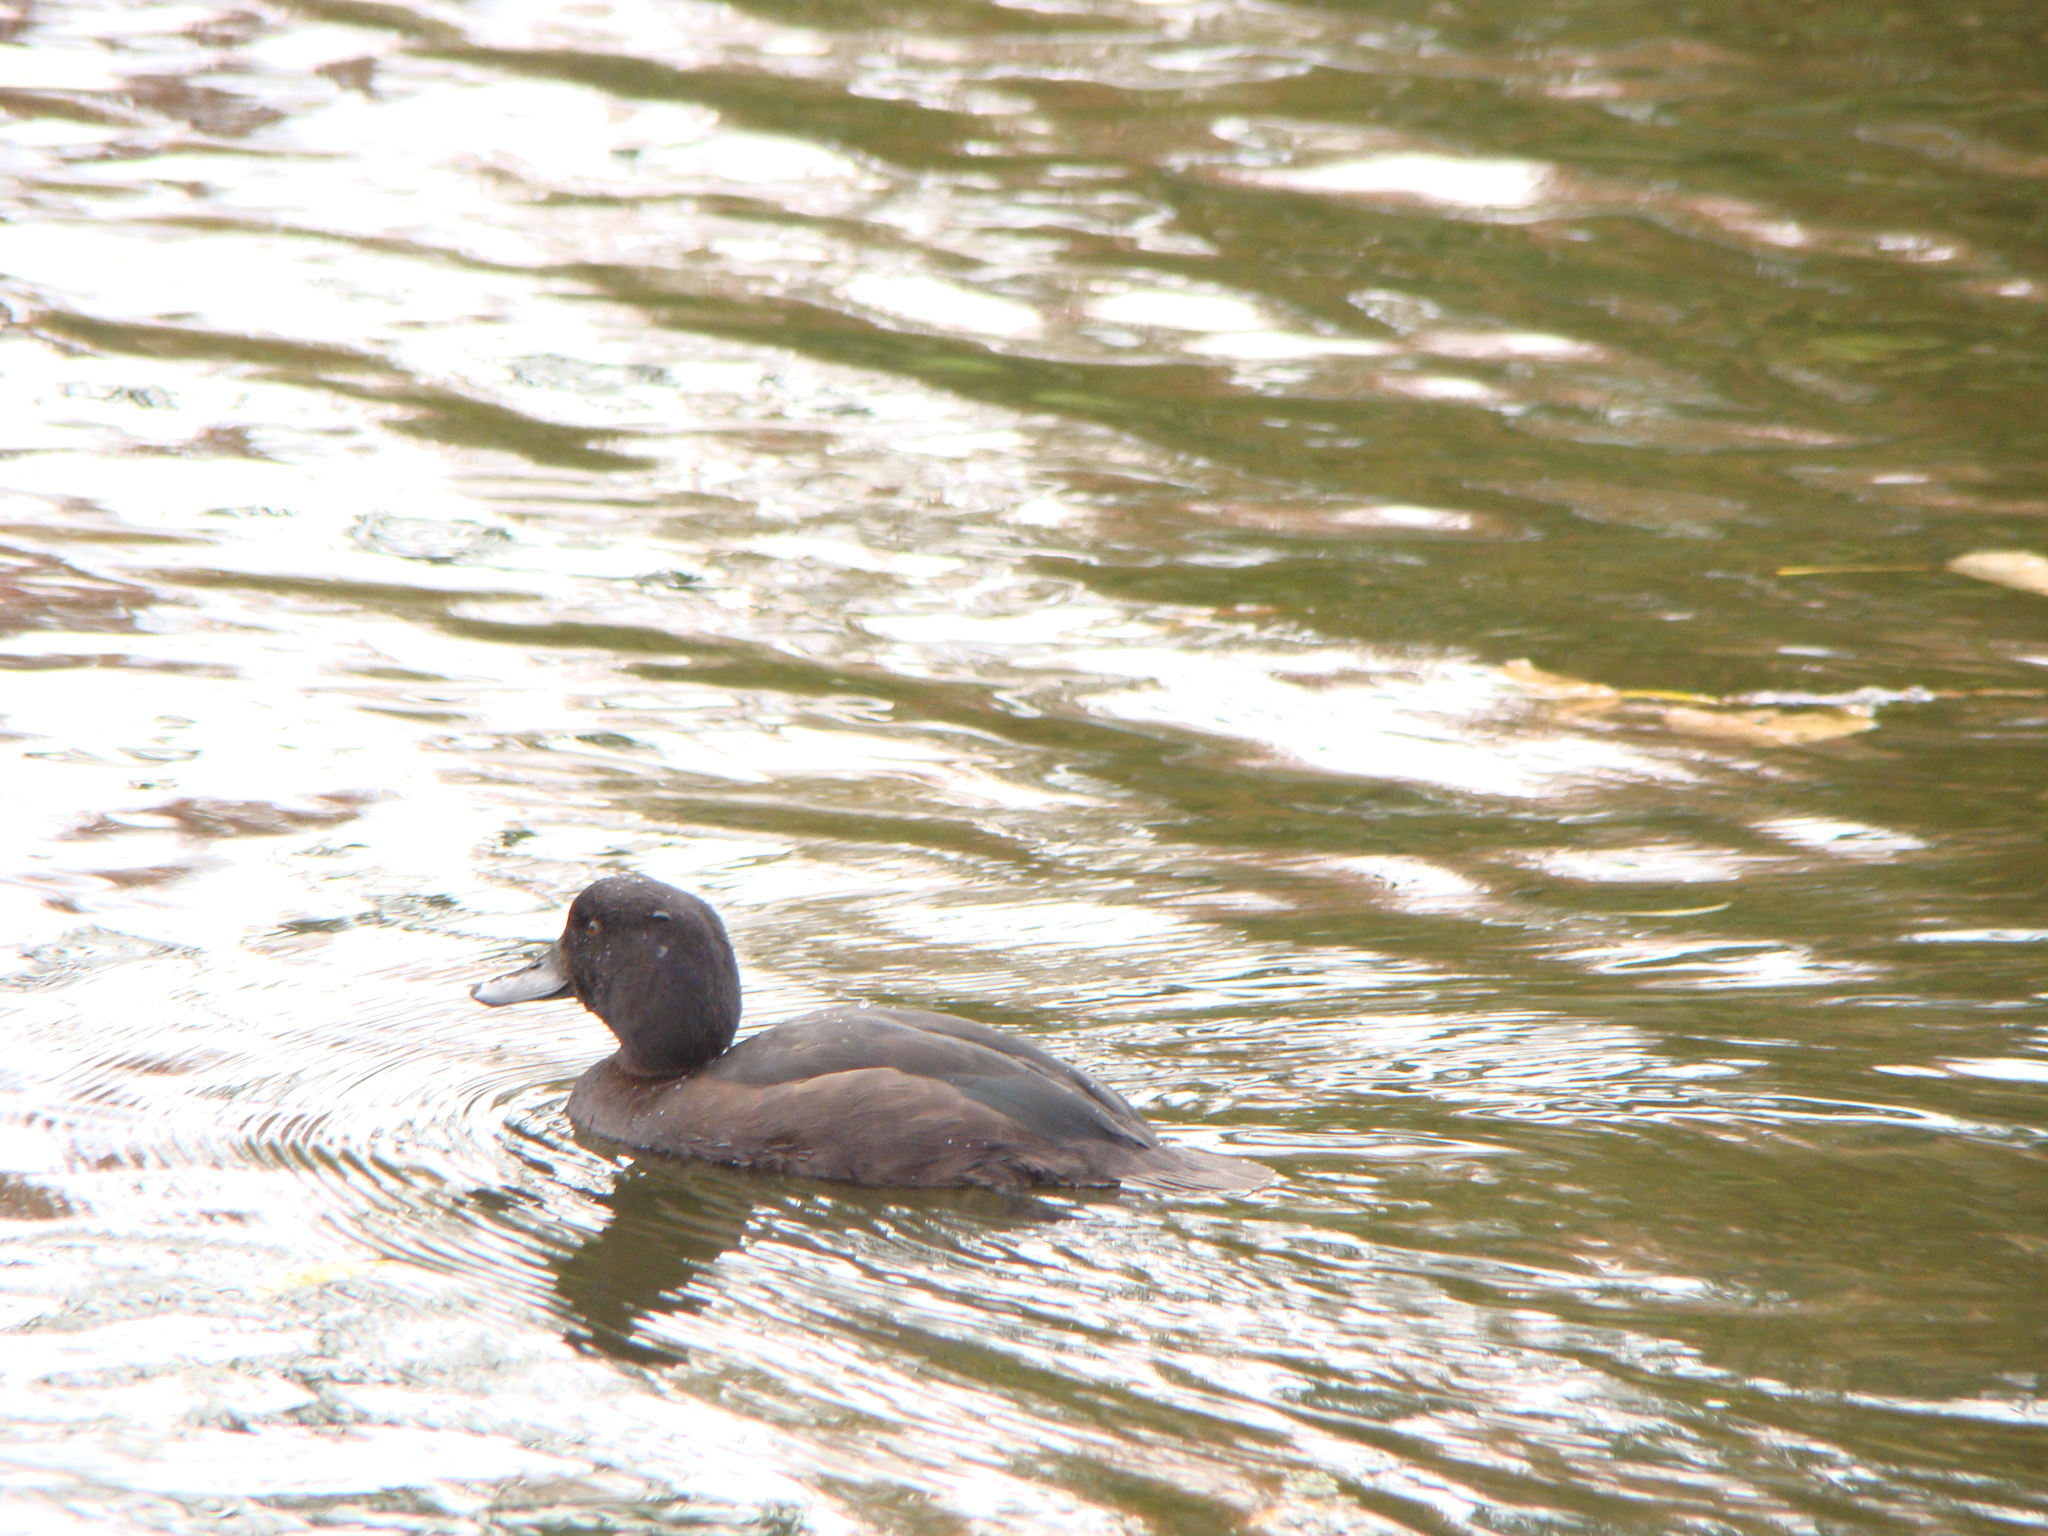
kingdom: Animalia
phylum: Chordata
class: Aves
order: Anseriformes
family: Anatidae
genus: Aythya
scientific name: Aythya novaeseelandiae
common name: New zealand scaup
